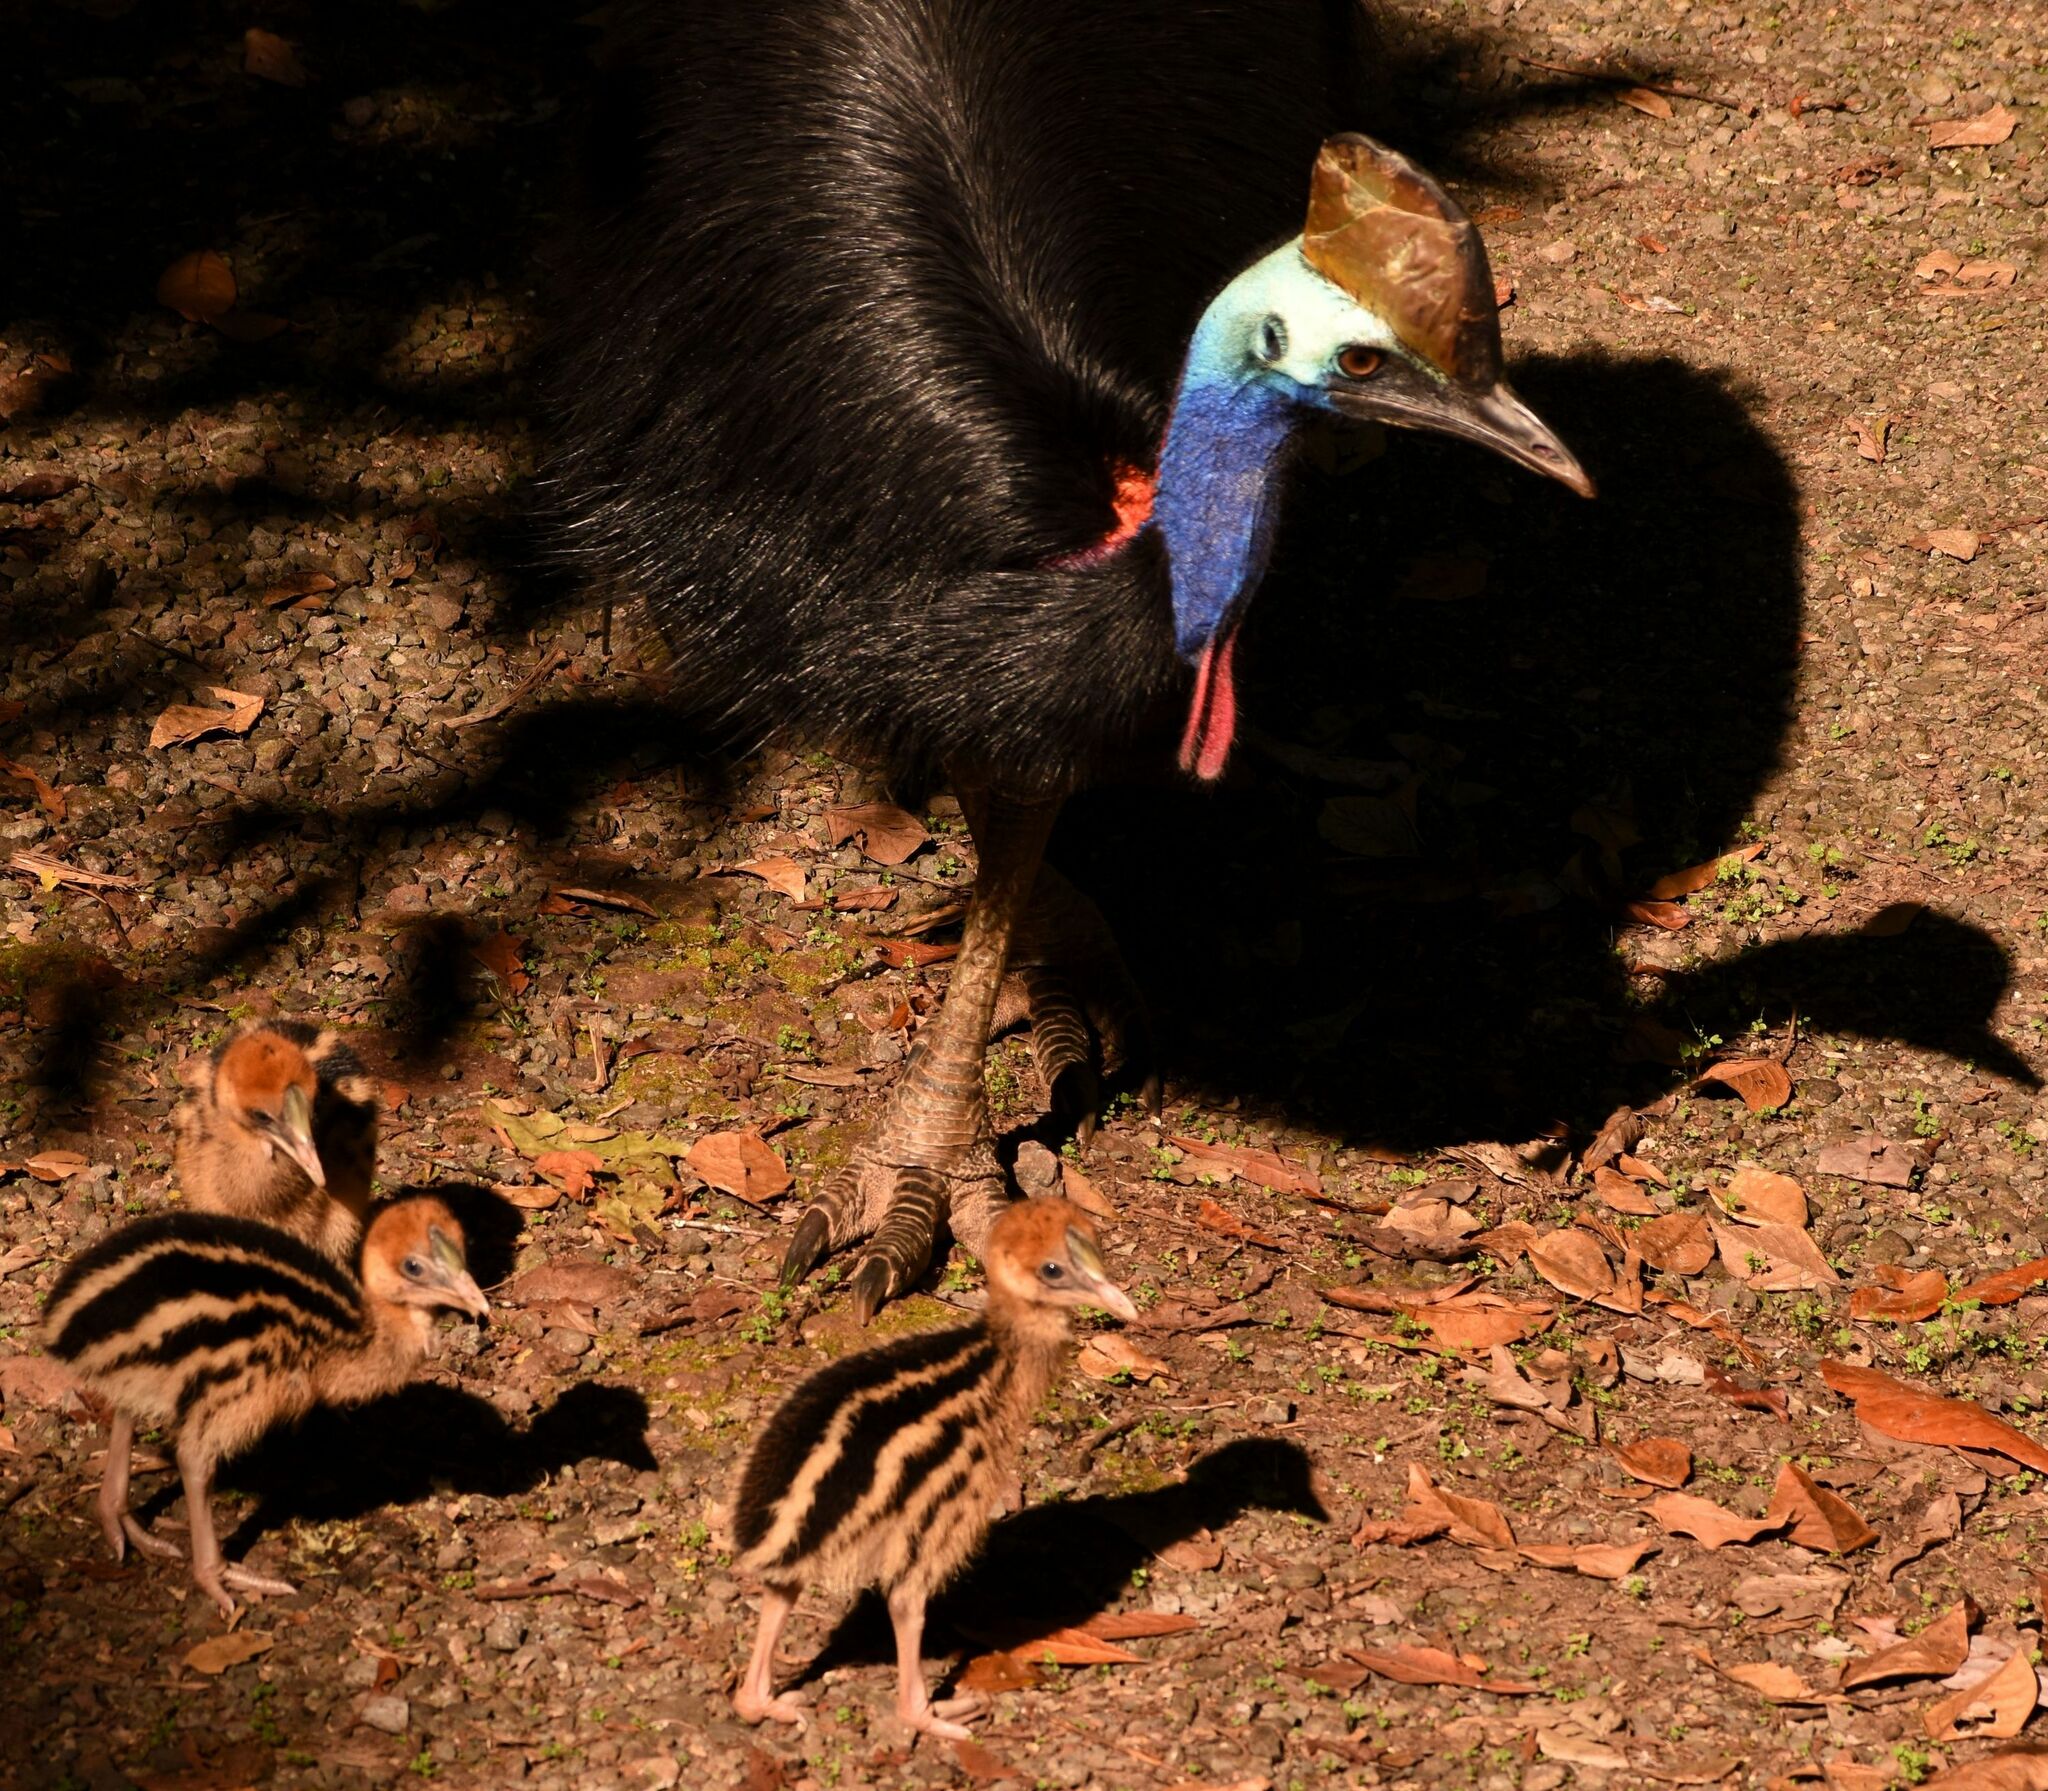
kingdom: Animalia
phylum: Chordata
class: Aves
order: Casuariiformes
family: Casuariidae
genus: Casuarius
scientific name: Casuarius casuarius
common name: Southern cassowary
